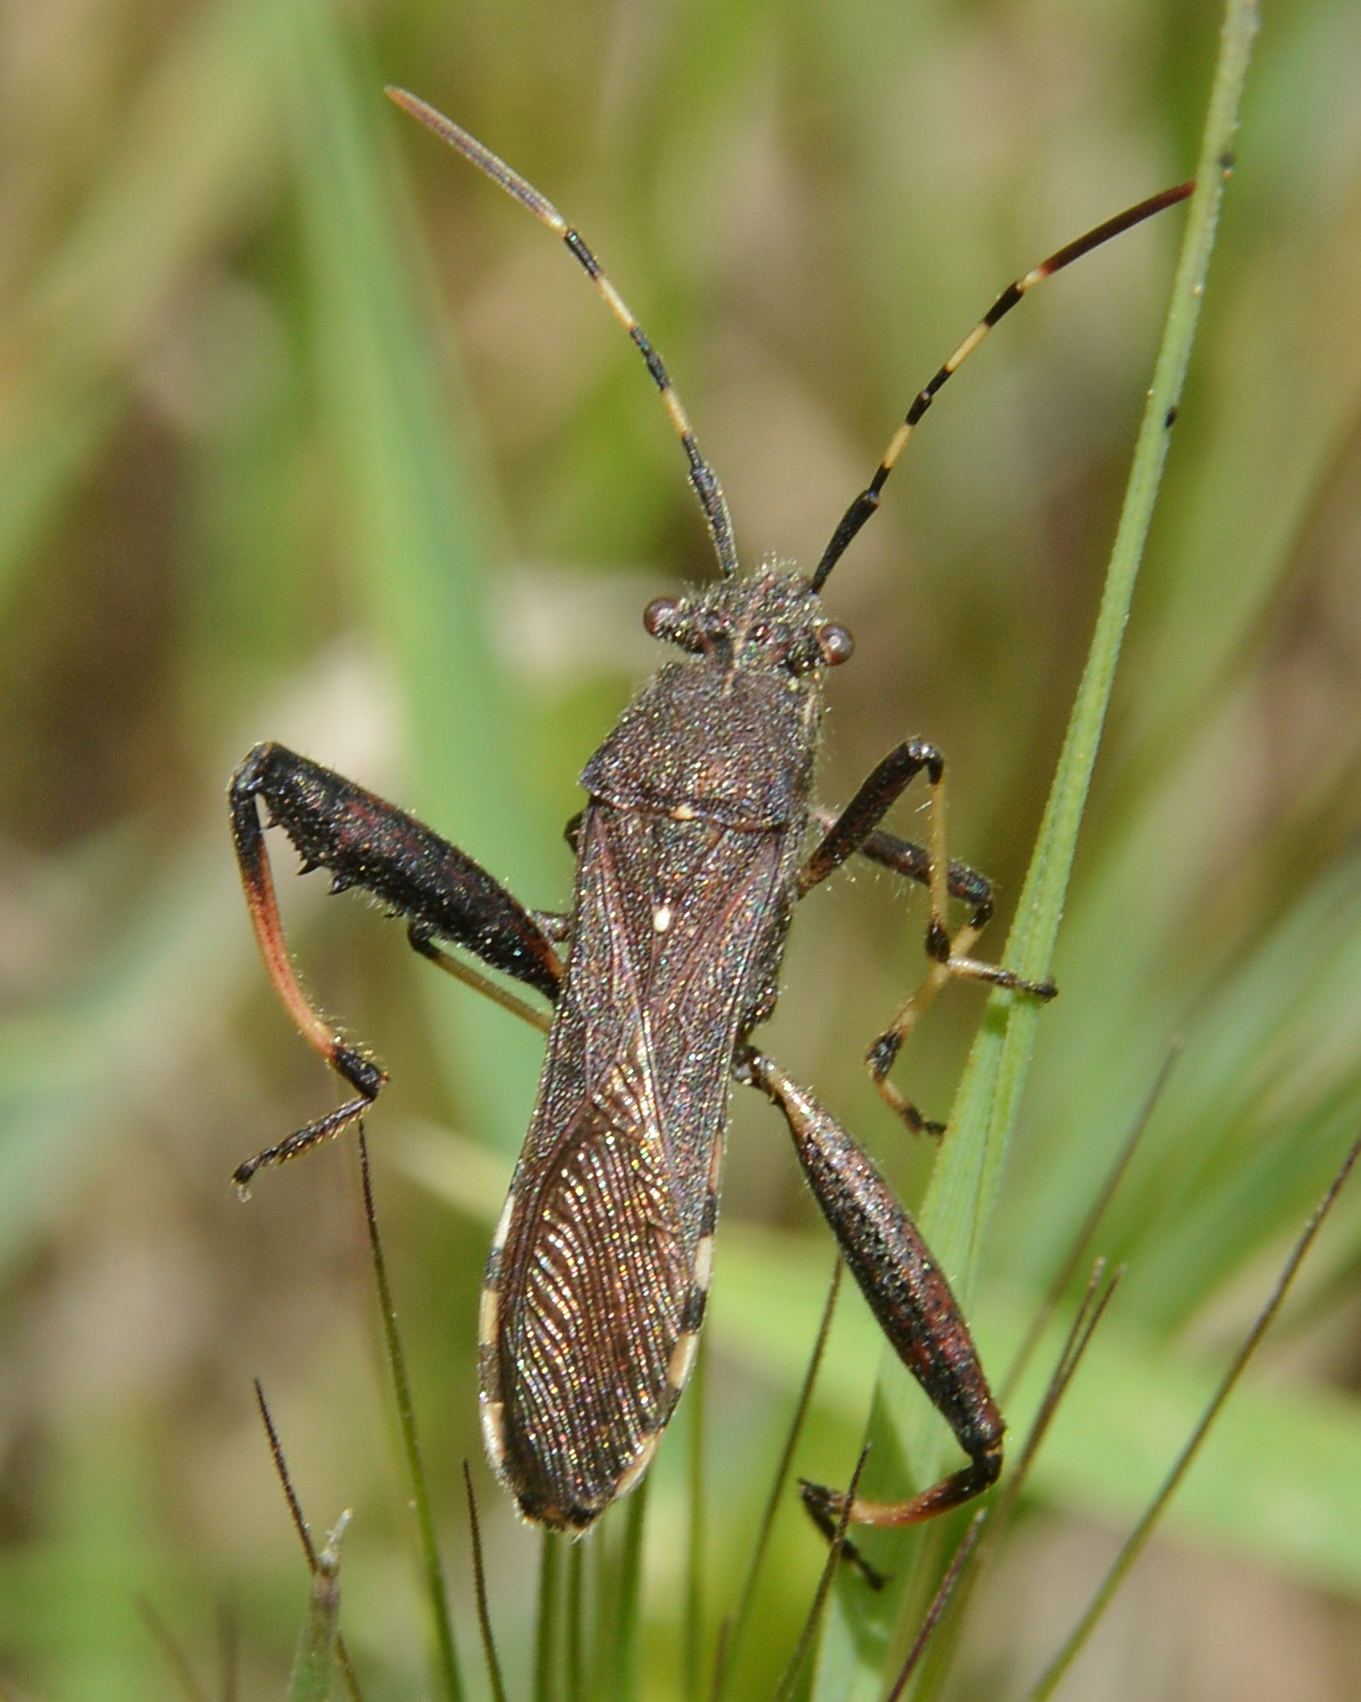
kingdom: Animalia
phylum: Arthropoda
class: Insecta
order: Hemiptera
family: Alydidae
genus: Camptopus
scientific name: Camptopus lateralis
